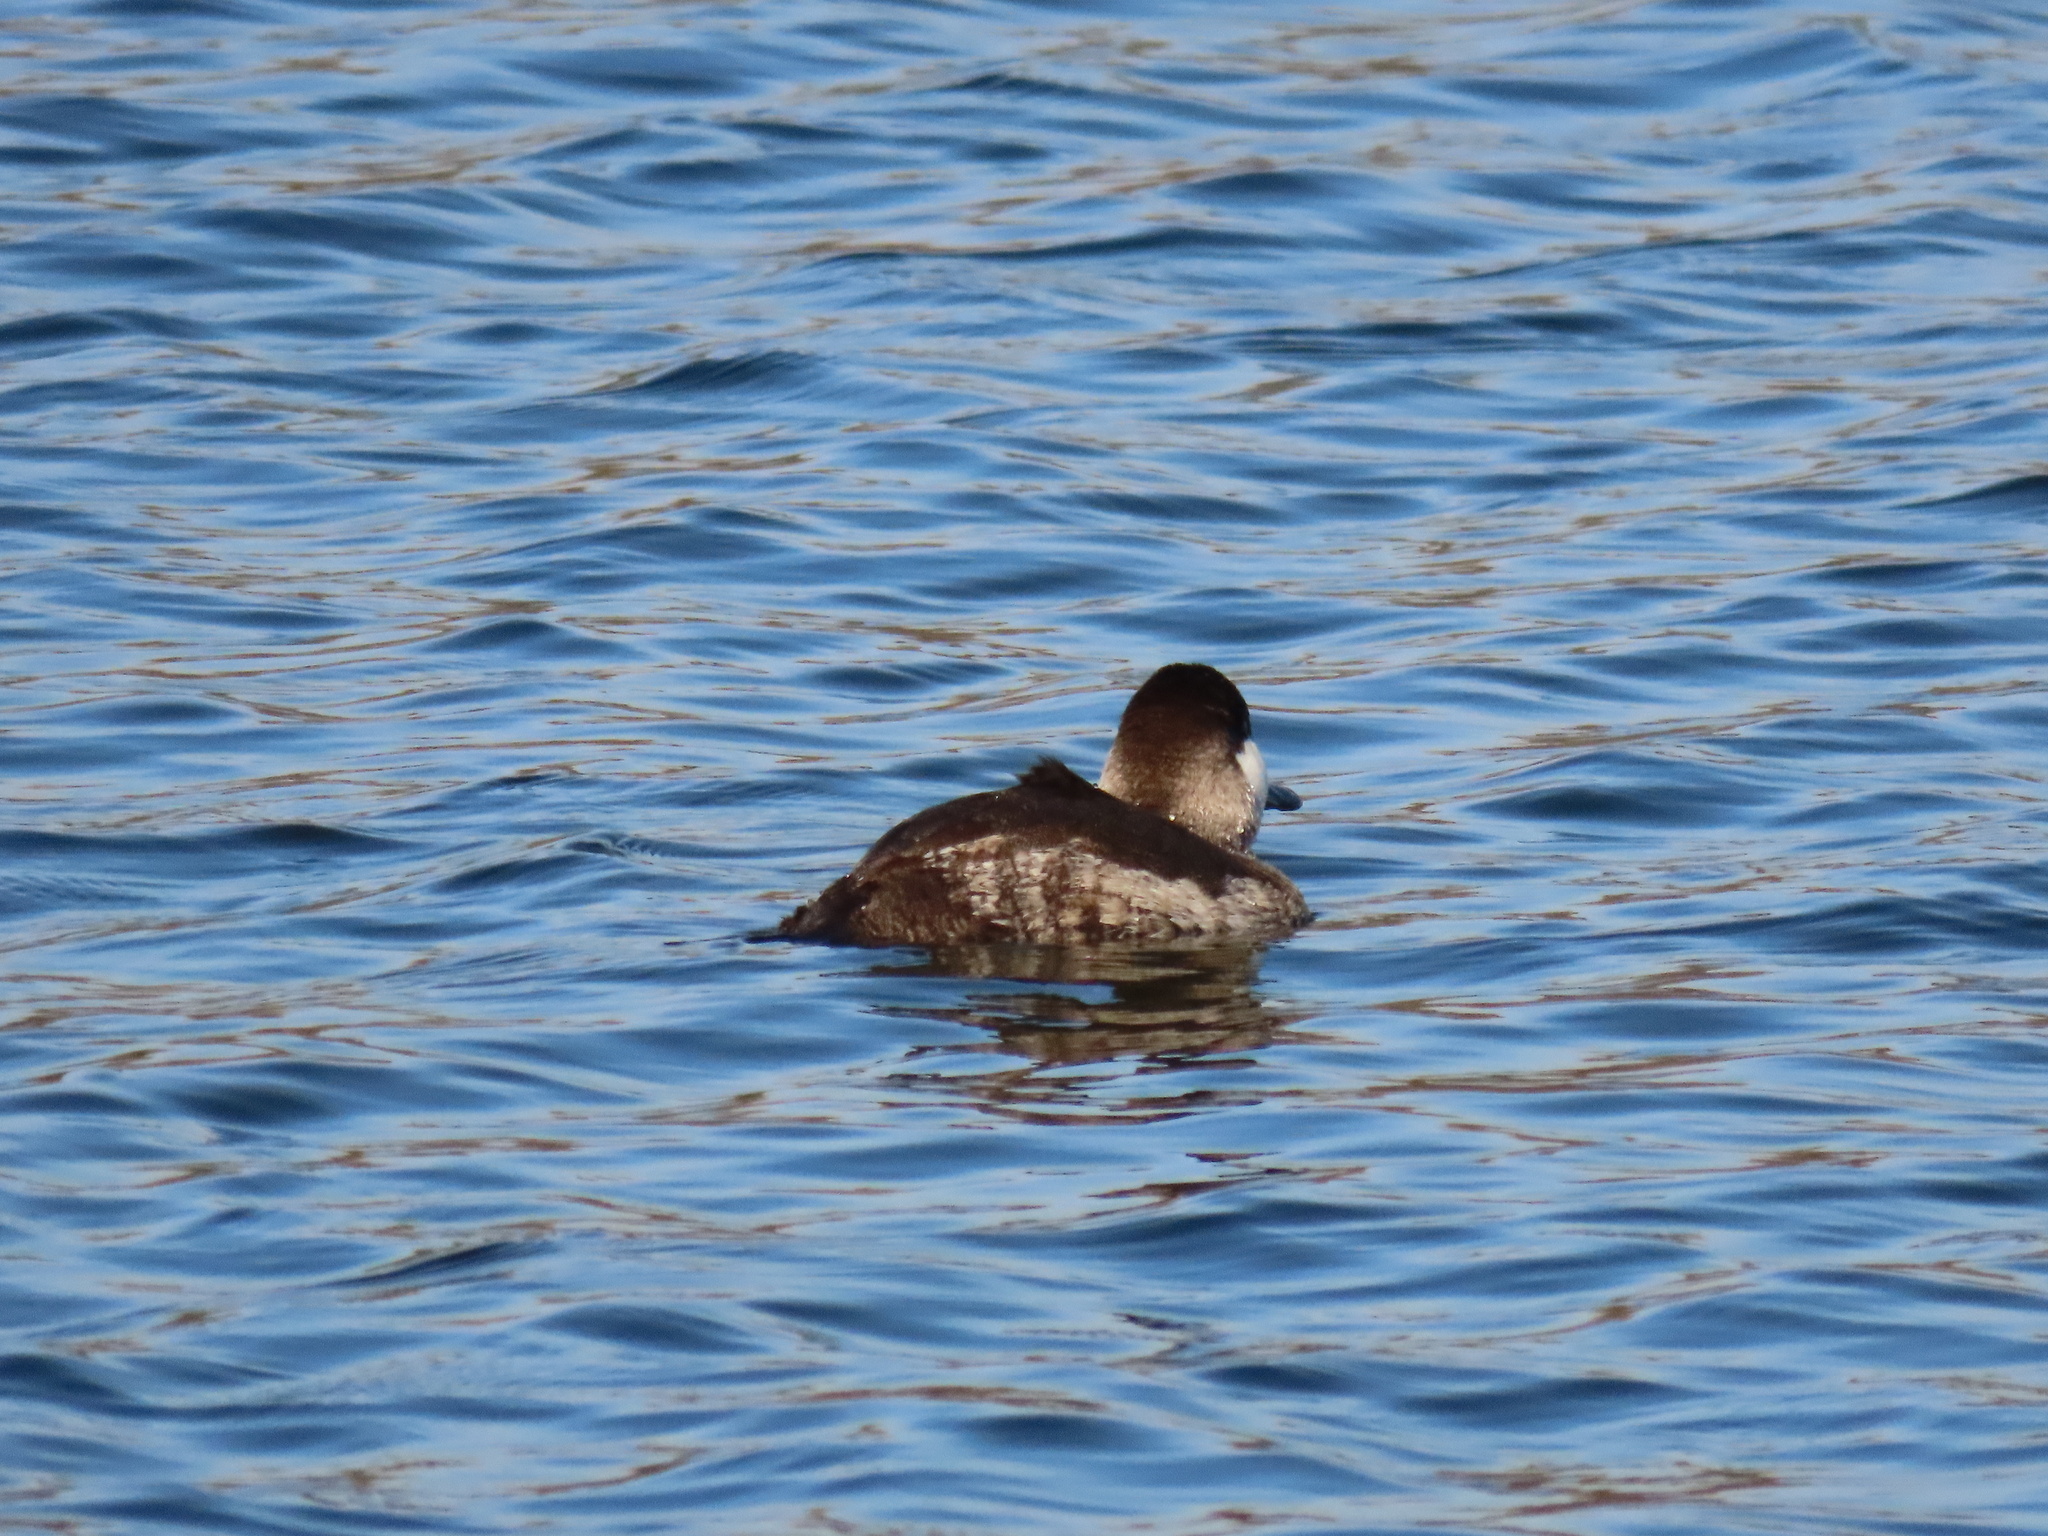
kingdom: Animalia
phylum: Chordata
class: Aves
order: Anseriformes
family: Anatidae
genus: Oxyura
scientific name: Oxyura jamaicensis
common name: Ruddy duck
